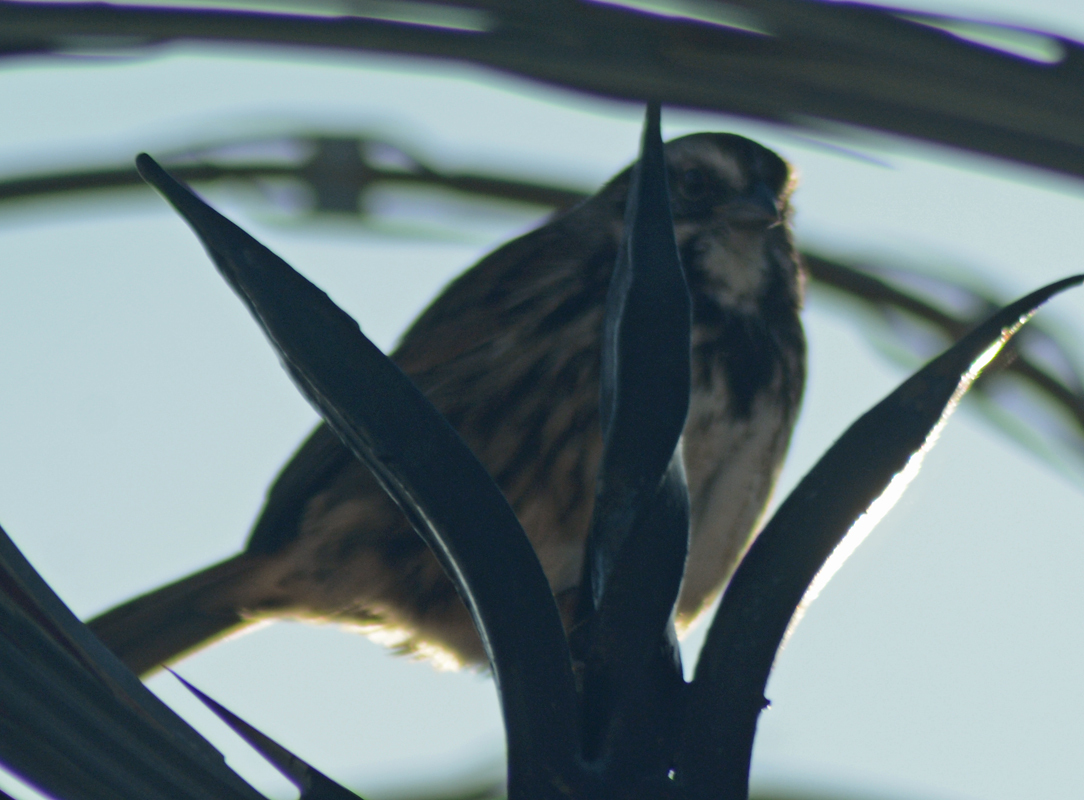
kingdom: Animalia
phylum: Chordata
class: Aves
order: Passeriformes
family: Passerellidae
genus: Melospiza
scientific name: Melospiza melodia
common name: Song sparrow
